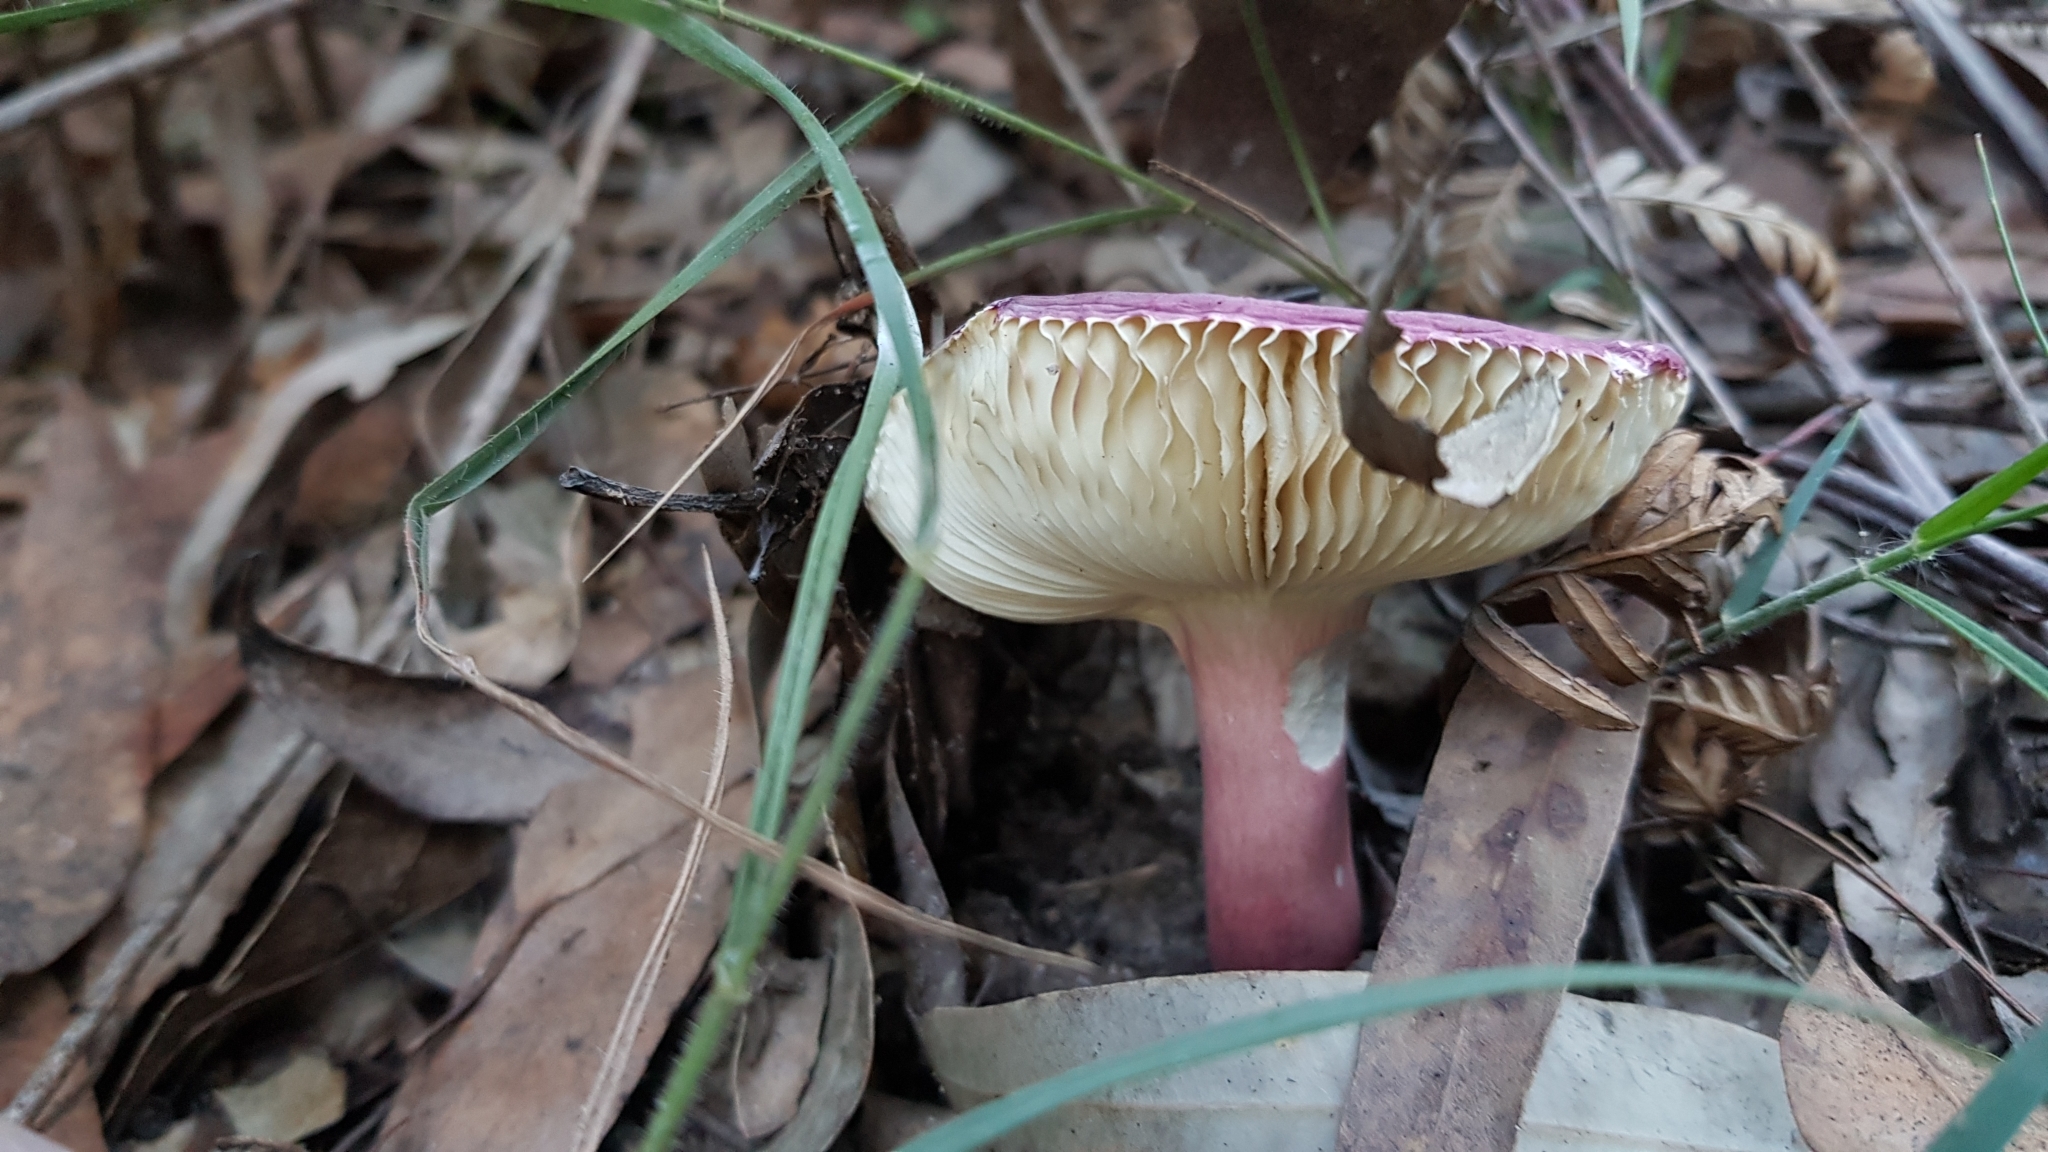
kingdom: Fungi
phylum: Basidiomycota
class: Agaricomycetes
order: Russulales
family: Russulaceae
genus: Russula
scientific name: Russula lenkunya
